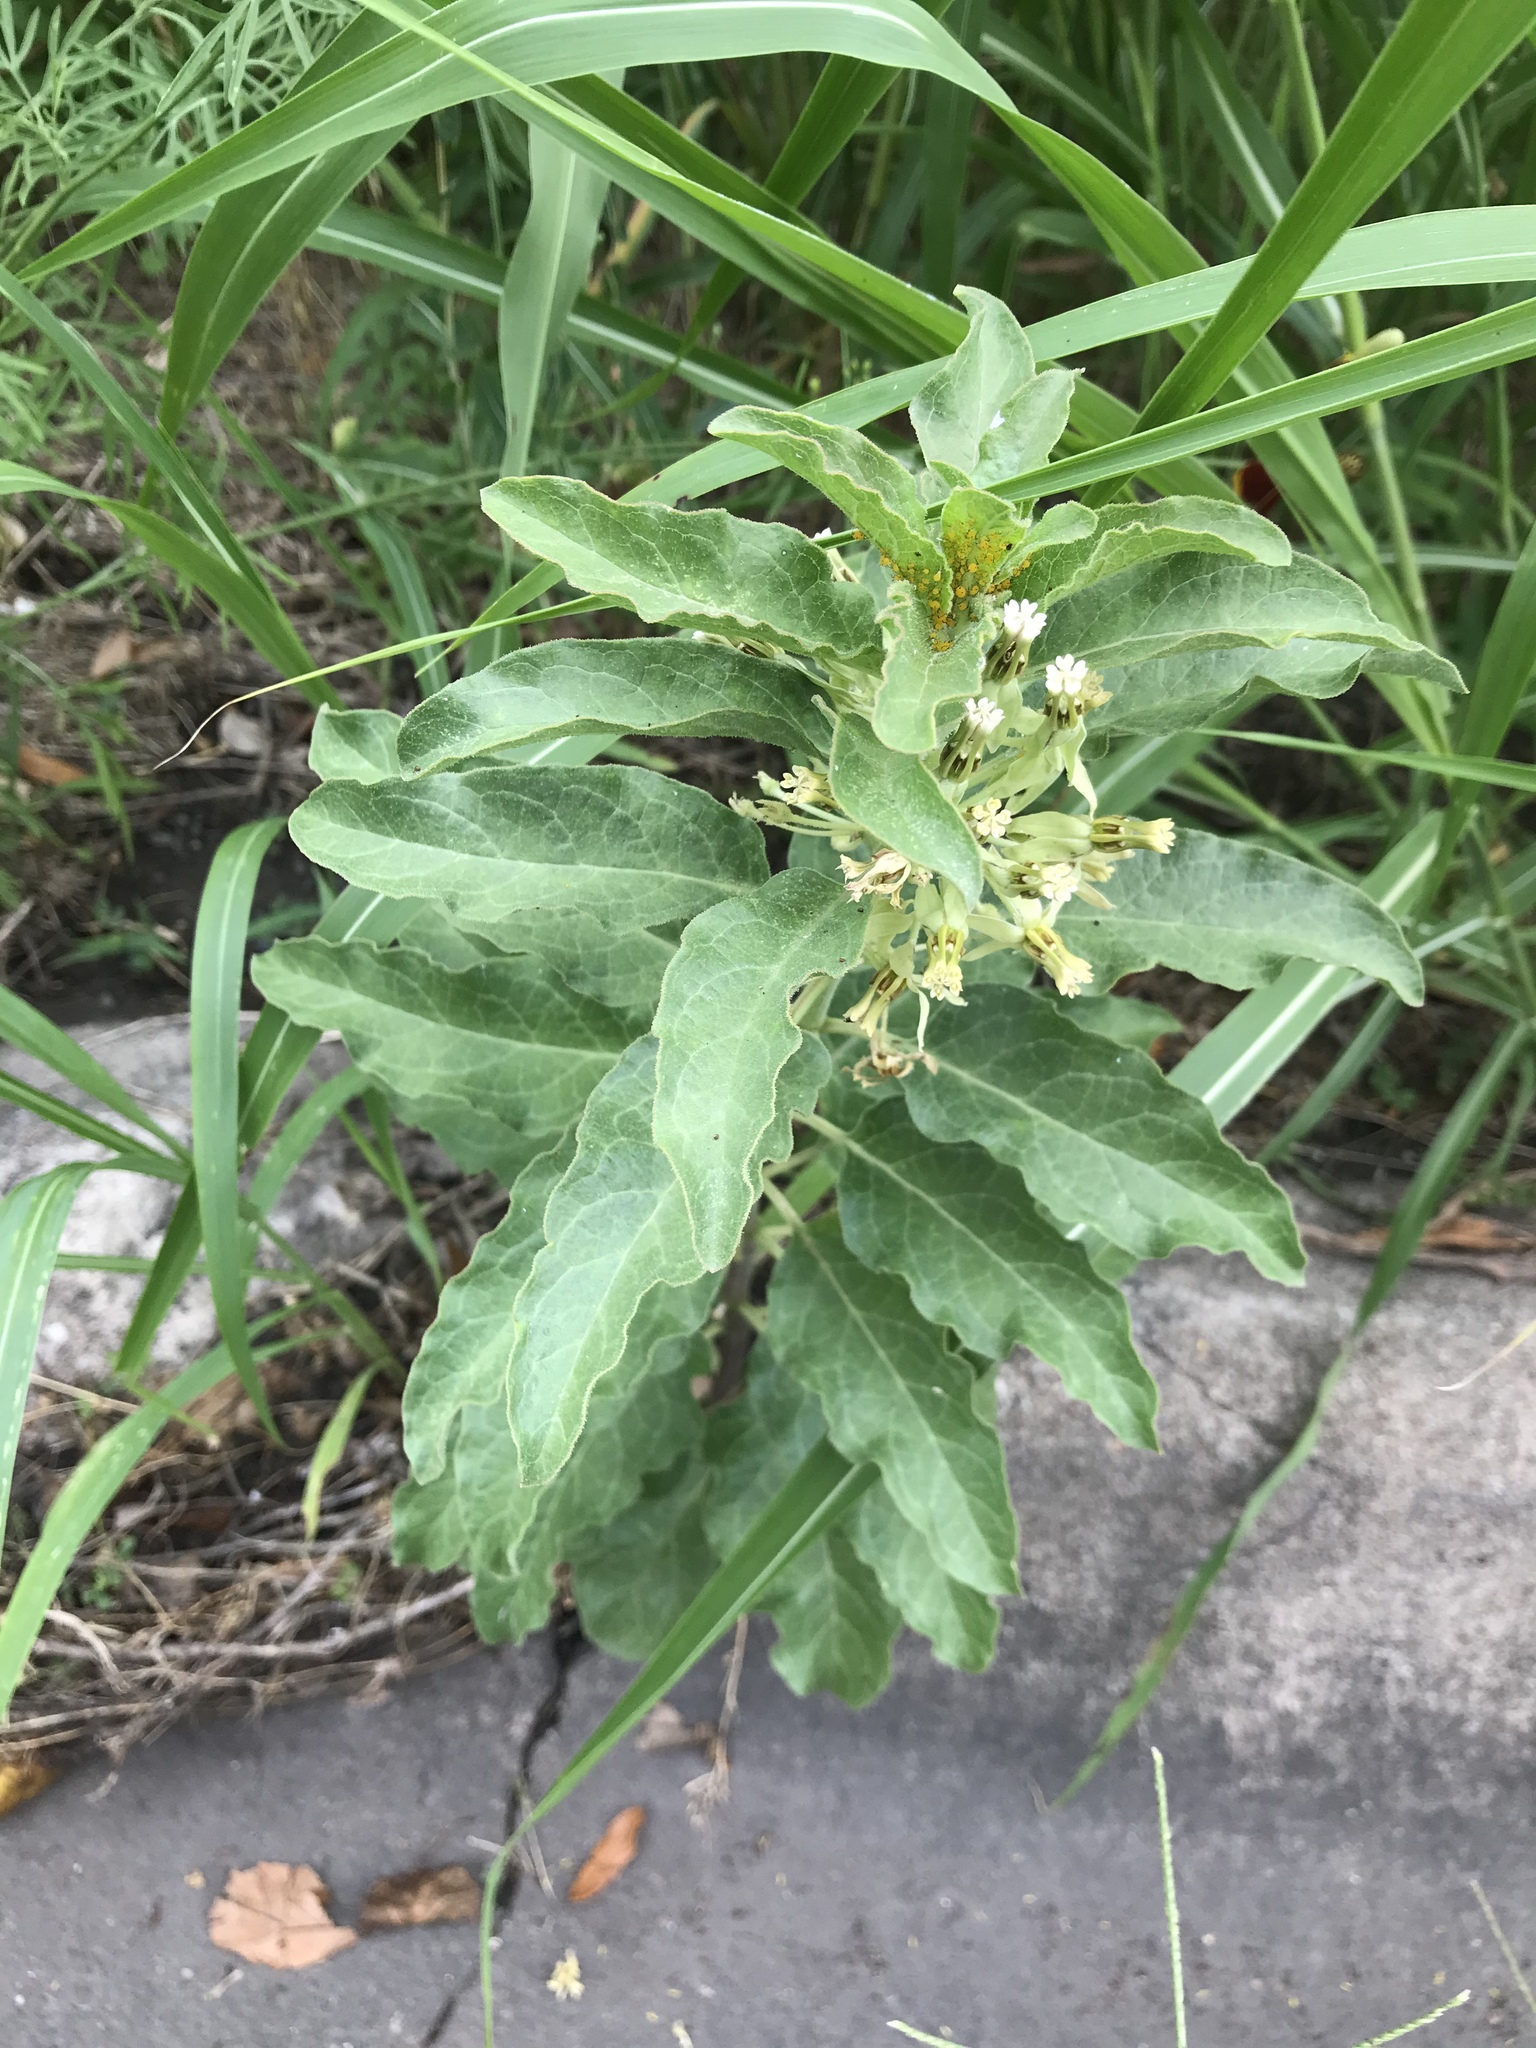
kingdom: Plantae
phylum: Tracheophyta
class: Magnoliopsida
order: Gentianales
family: Apocynaceae
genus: Asclepias
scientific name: Asclepias oenotheroides
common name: Zizotes milkweed
